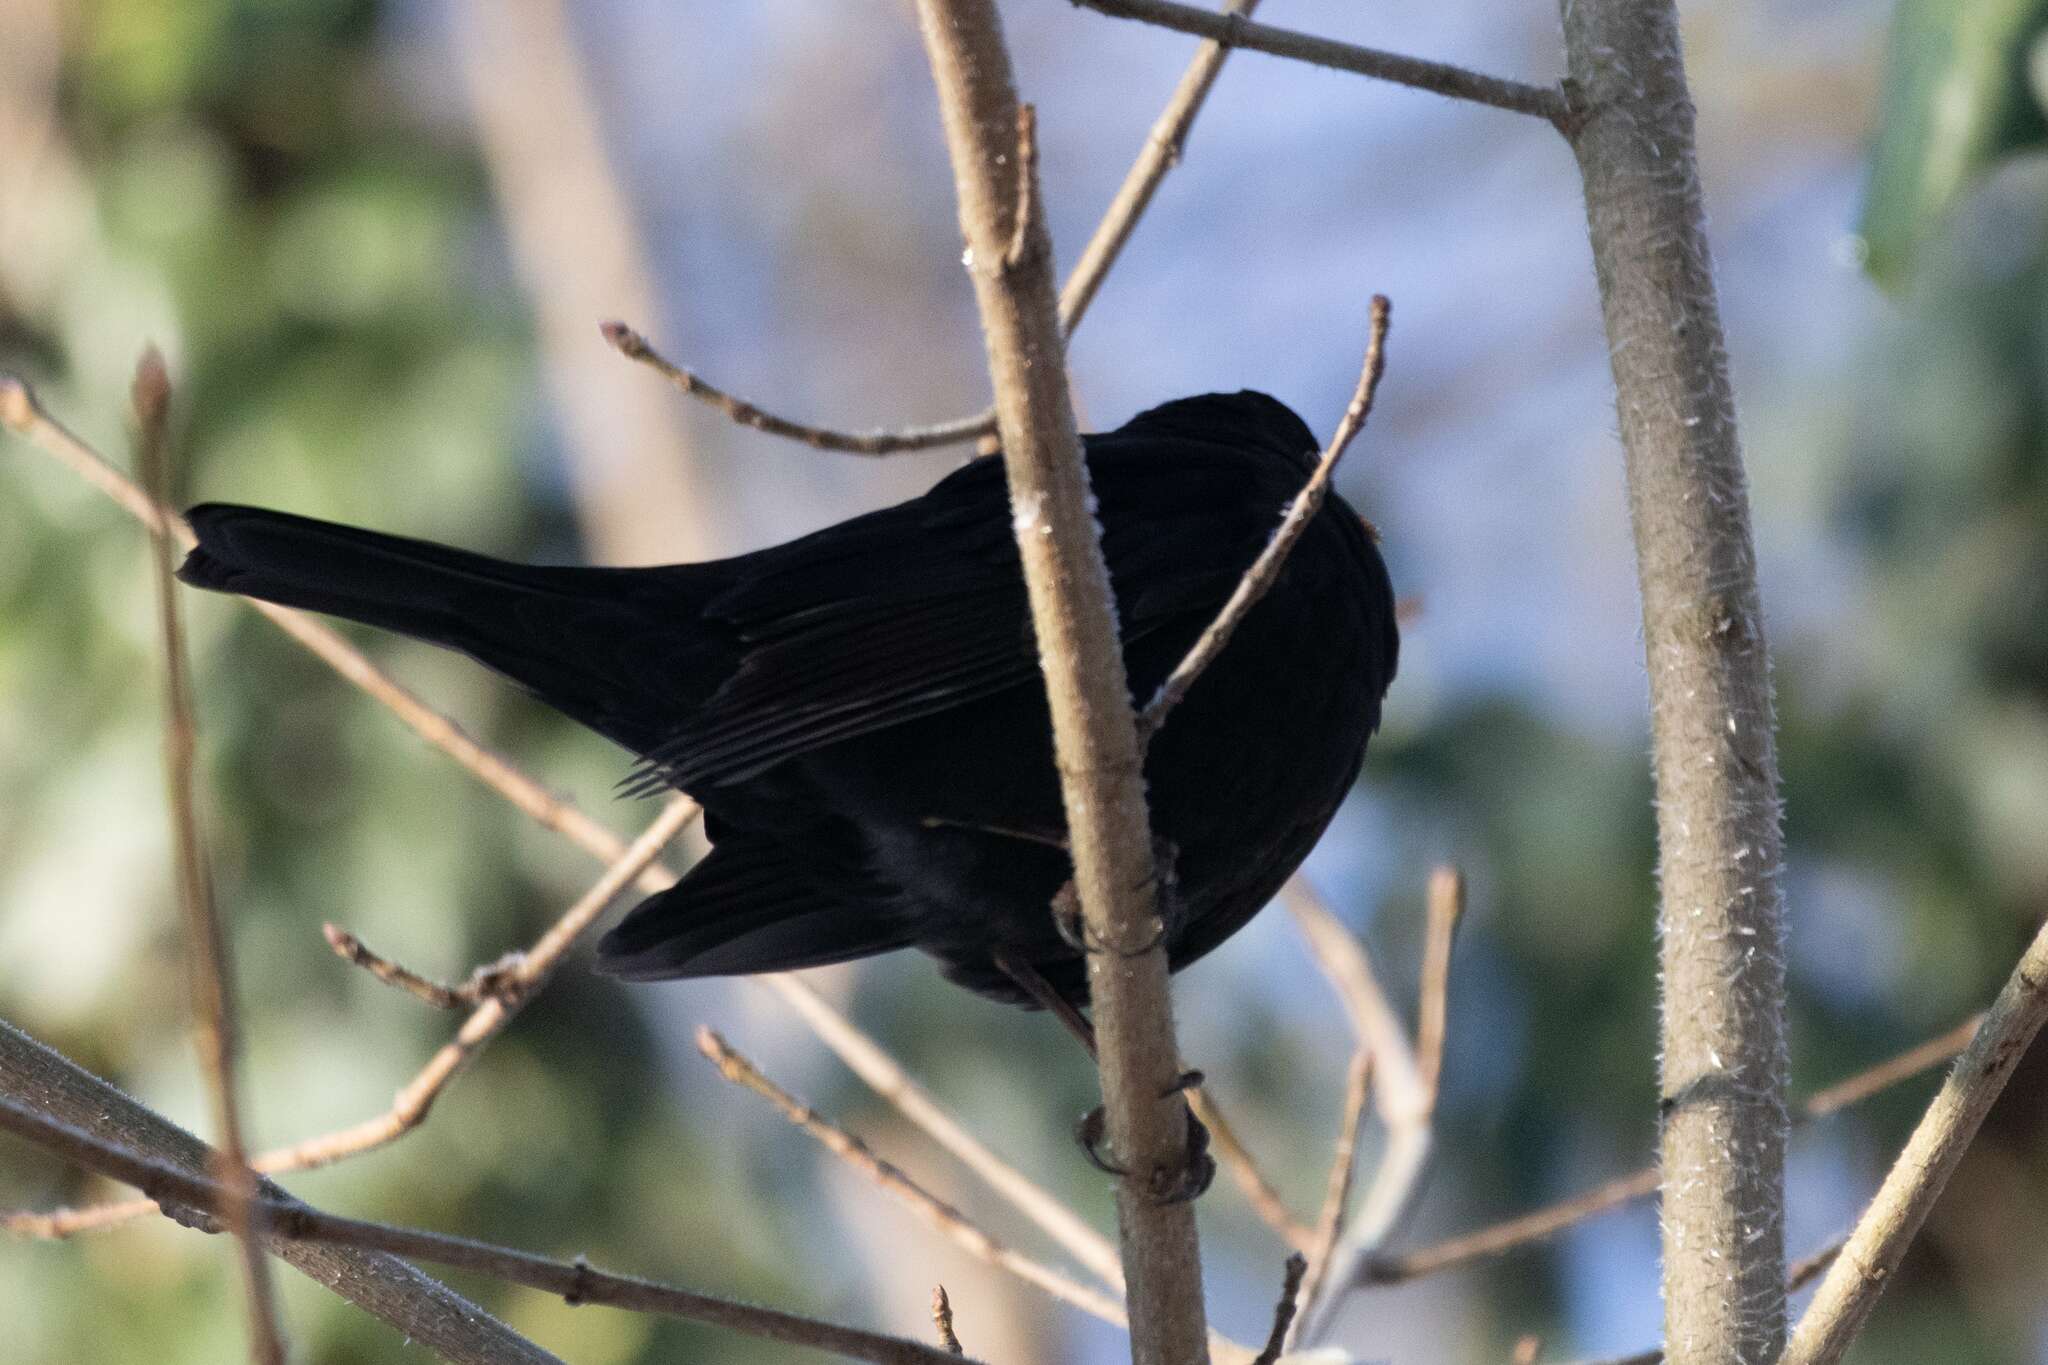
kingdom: Animalia
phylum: Chordata
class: Aves
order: Passeriformes
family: Turdidae
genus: Turdus
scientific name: Turdus merula
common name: Common blackbird
